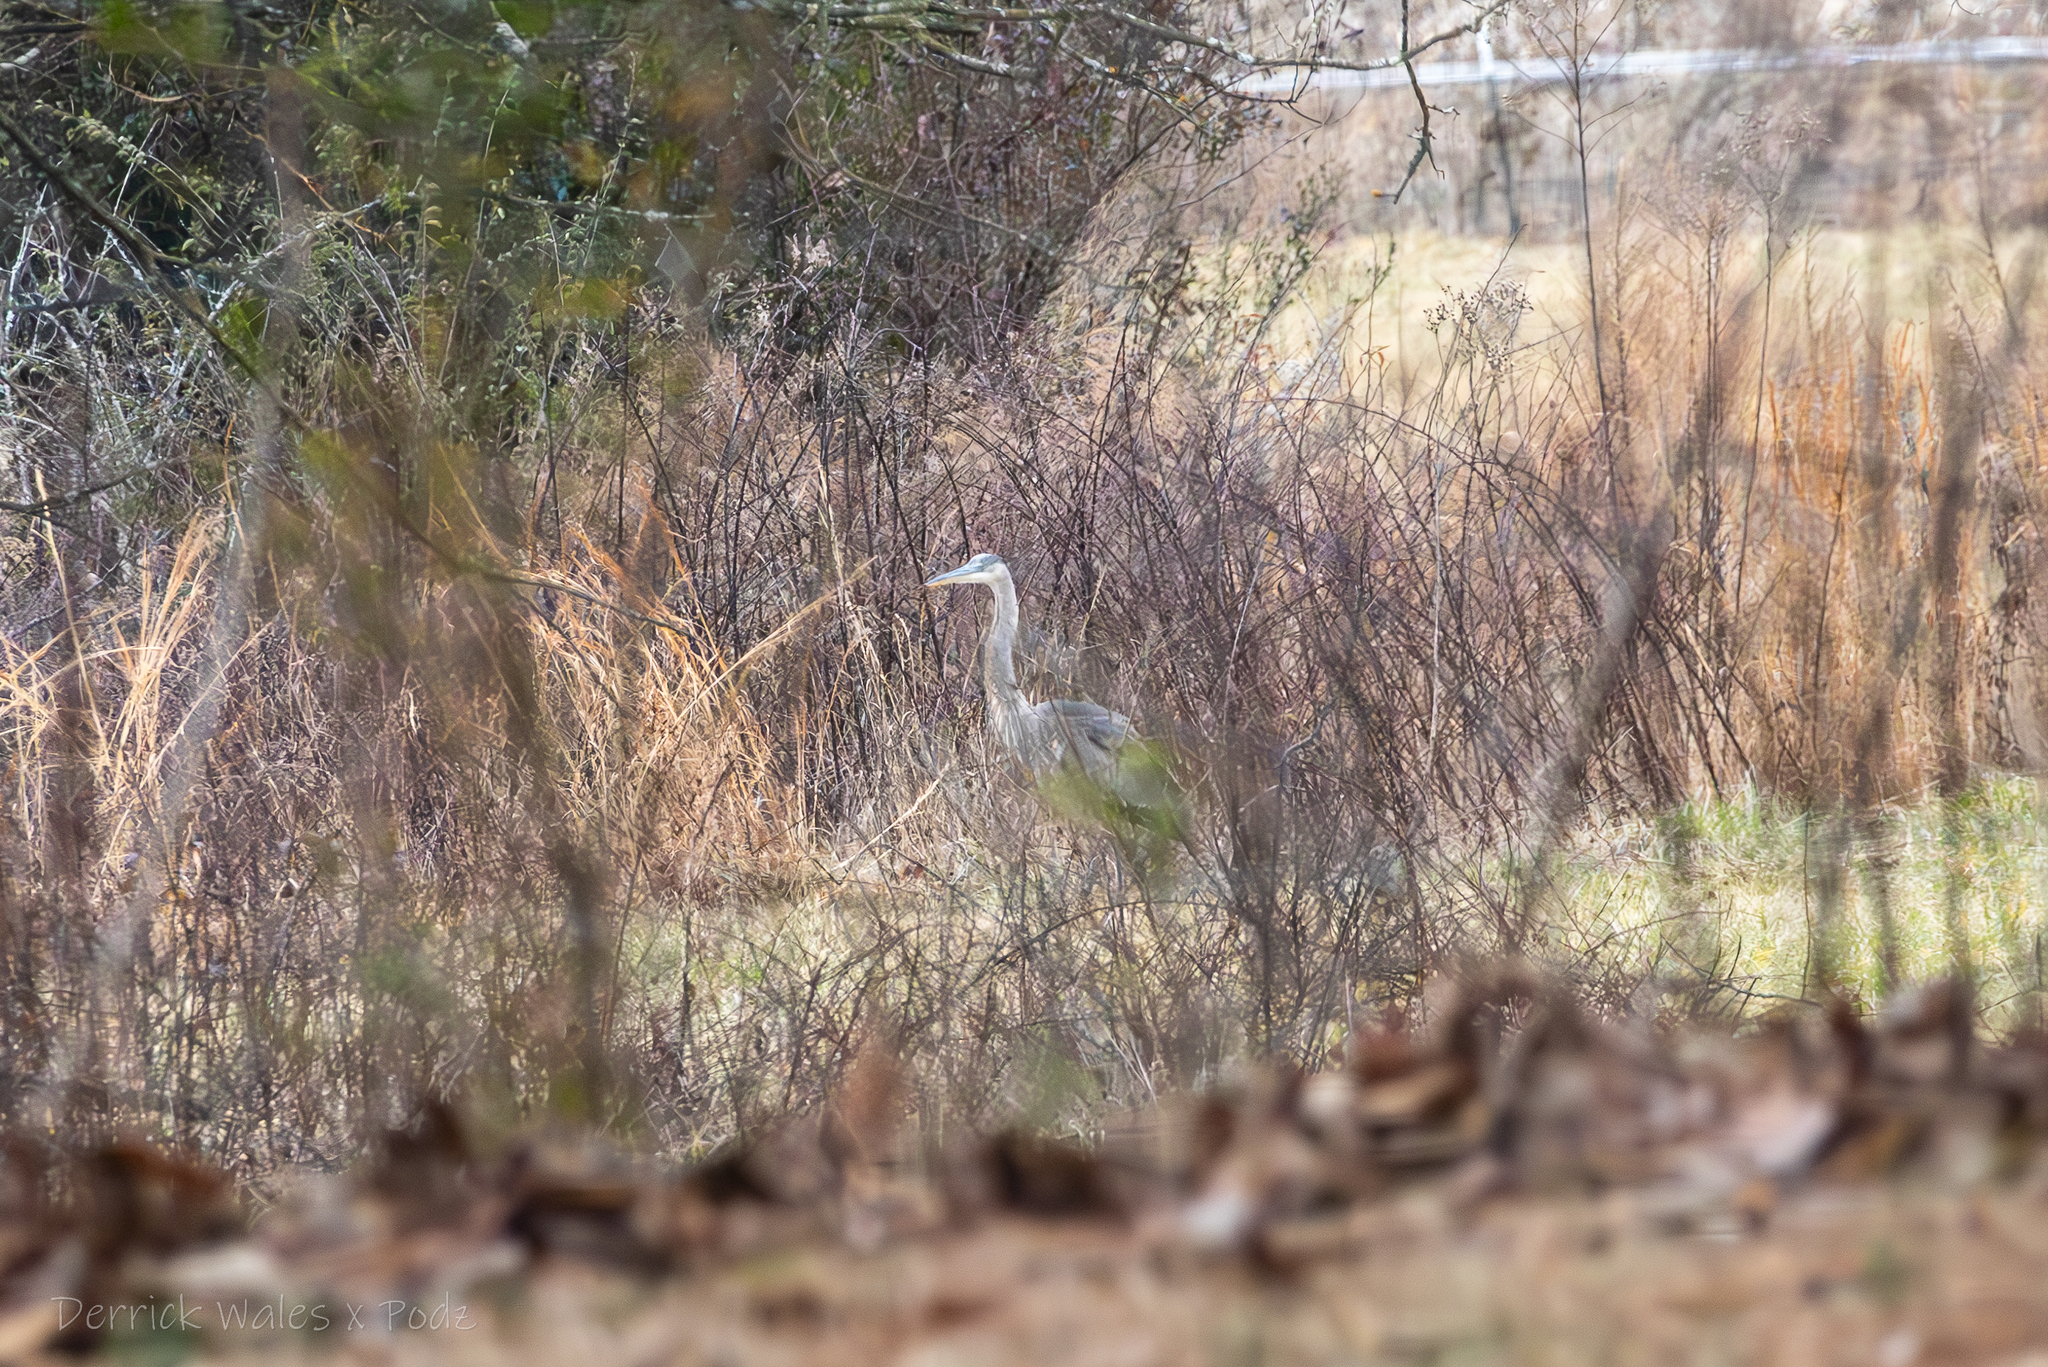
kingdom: Animalia
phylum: Chordata
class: Aves
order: Pelecaniformes
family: Ardeidae
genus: Ardea
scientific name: Ardea herodias
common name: Great blue heron
